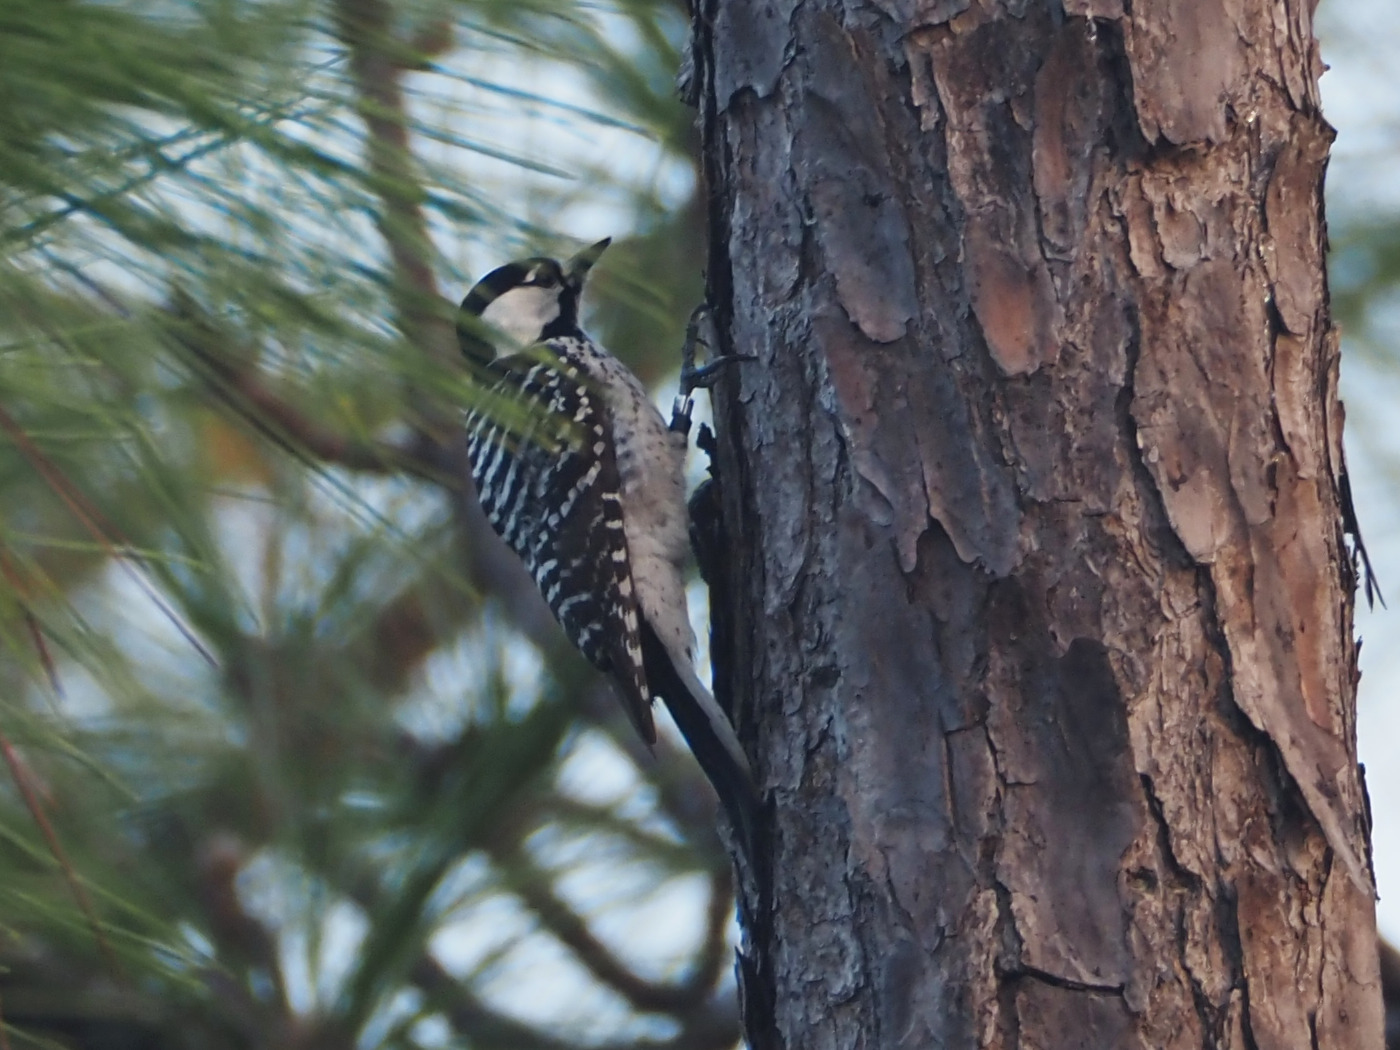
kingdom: Animalia
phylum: Chordata
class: Aves
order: Piciformes
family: Picidae
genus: Leuconotopicus
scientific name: Leuconotopicus borealis
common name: Red-cockaded woodpecker
